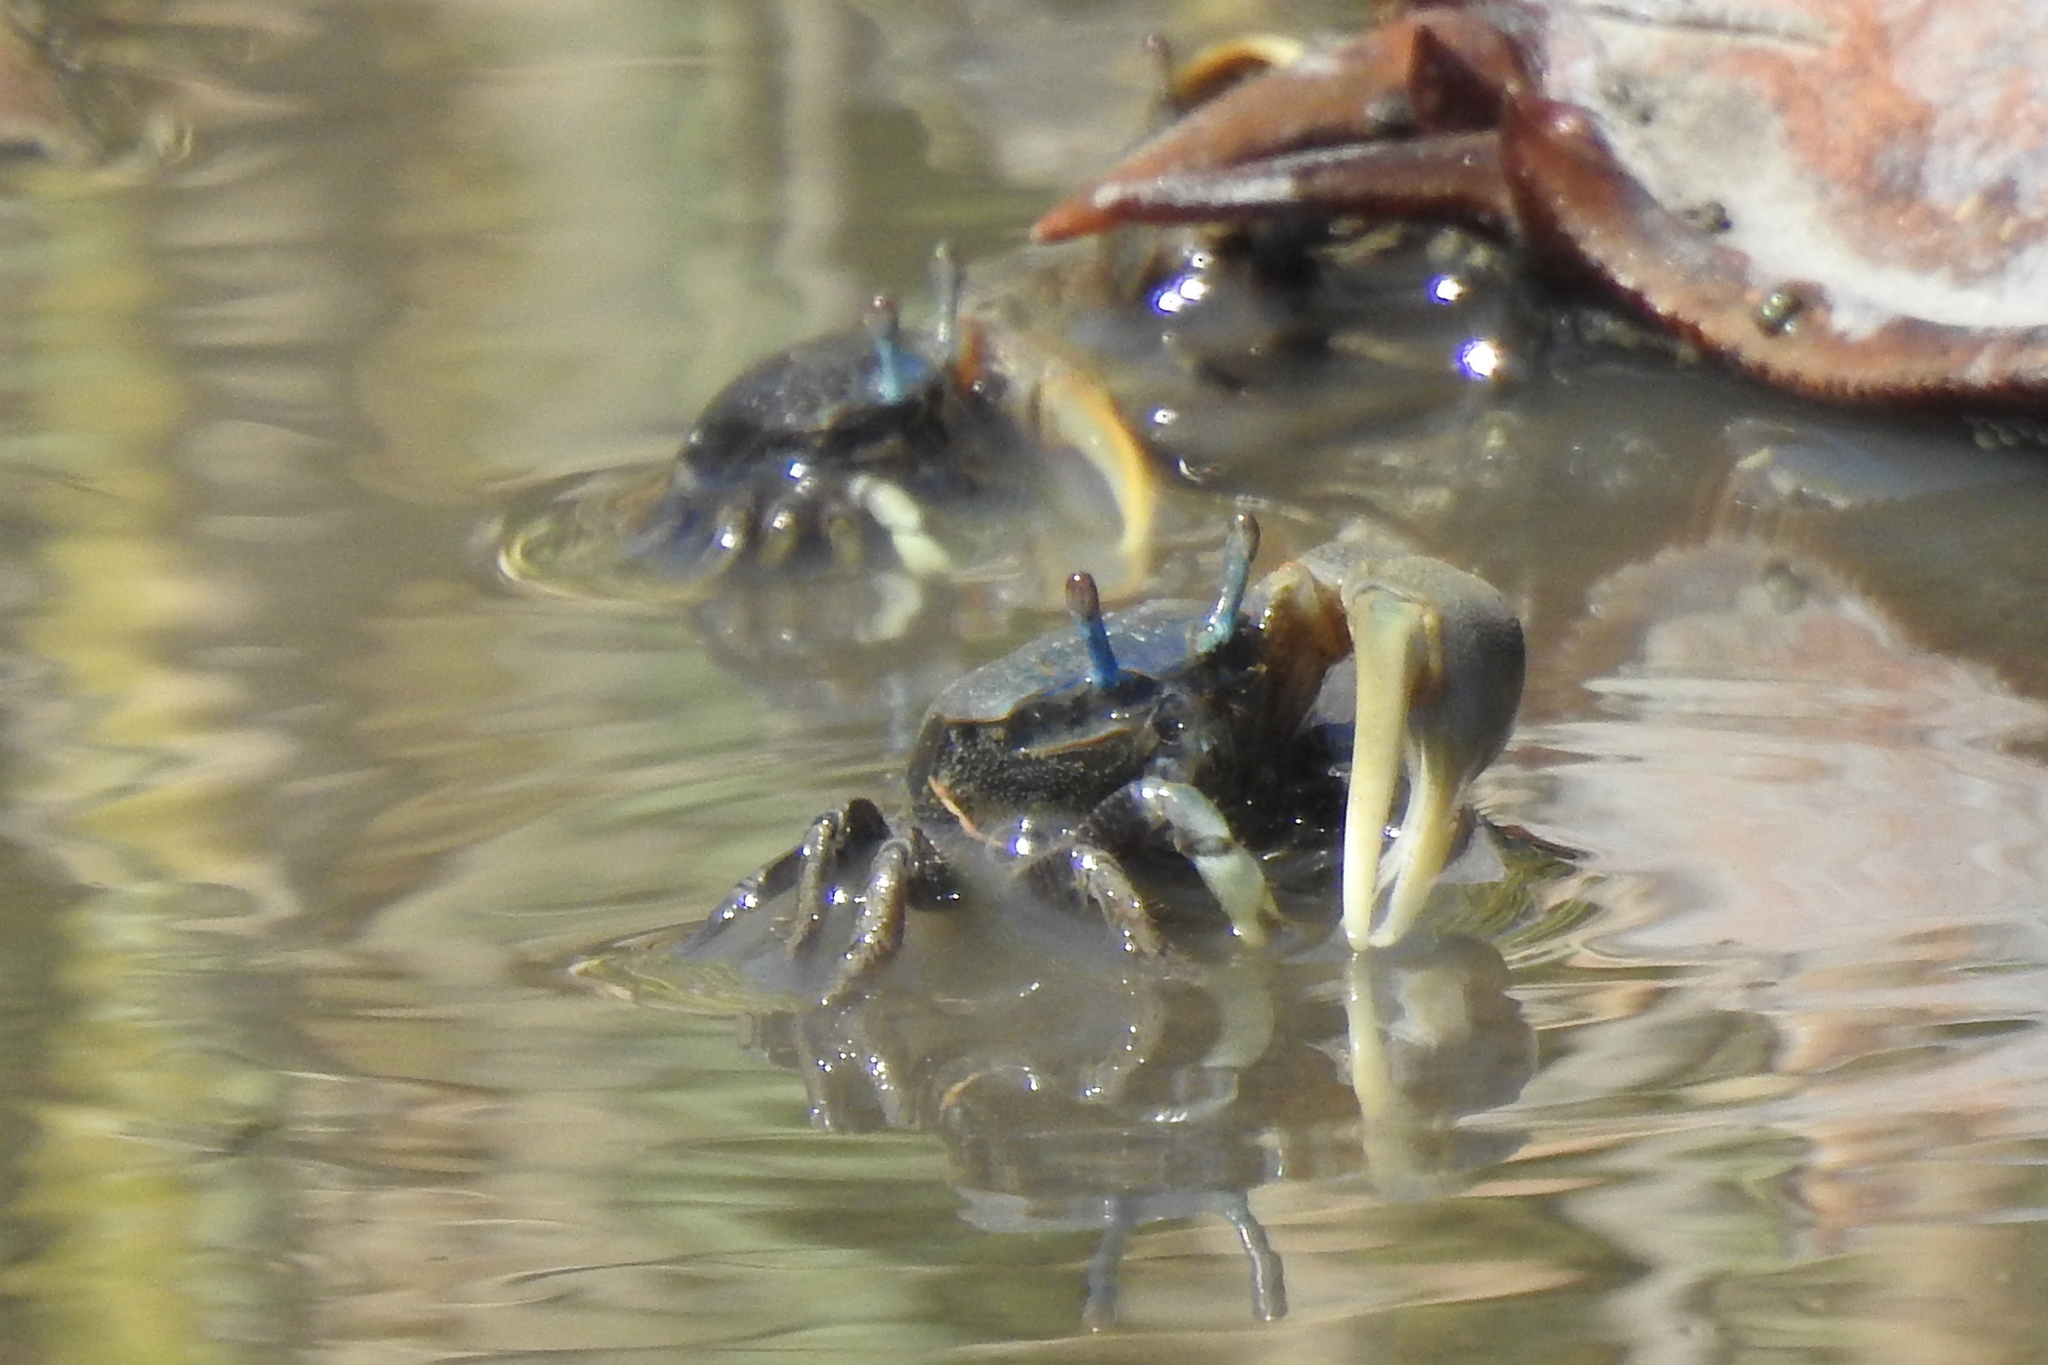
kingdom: Animalia
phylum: Arthropoda
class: Malacostraca
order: Decapoda
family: Ocypodidae
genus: Minuca
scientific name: Minuca pugnax
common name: Mud fiddler crab
